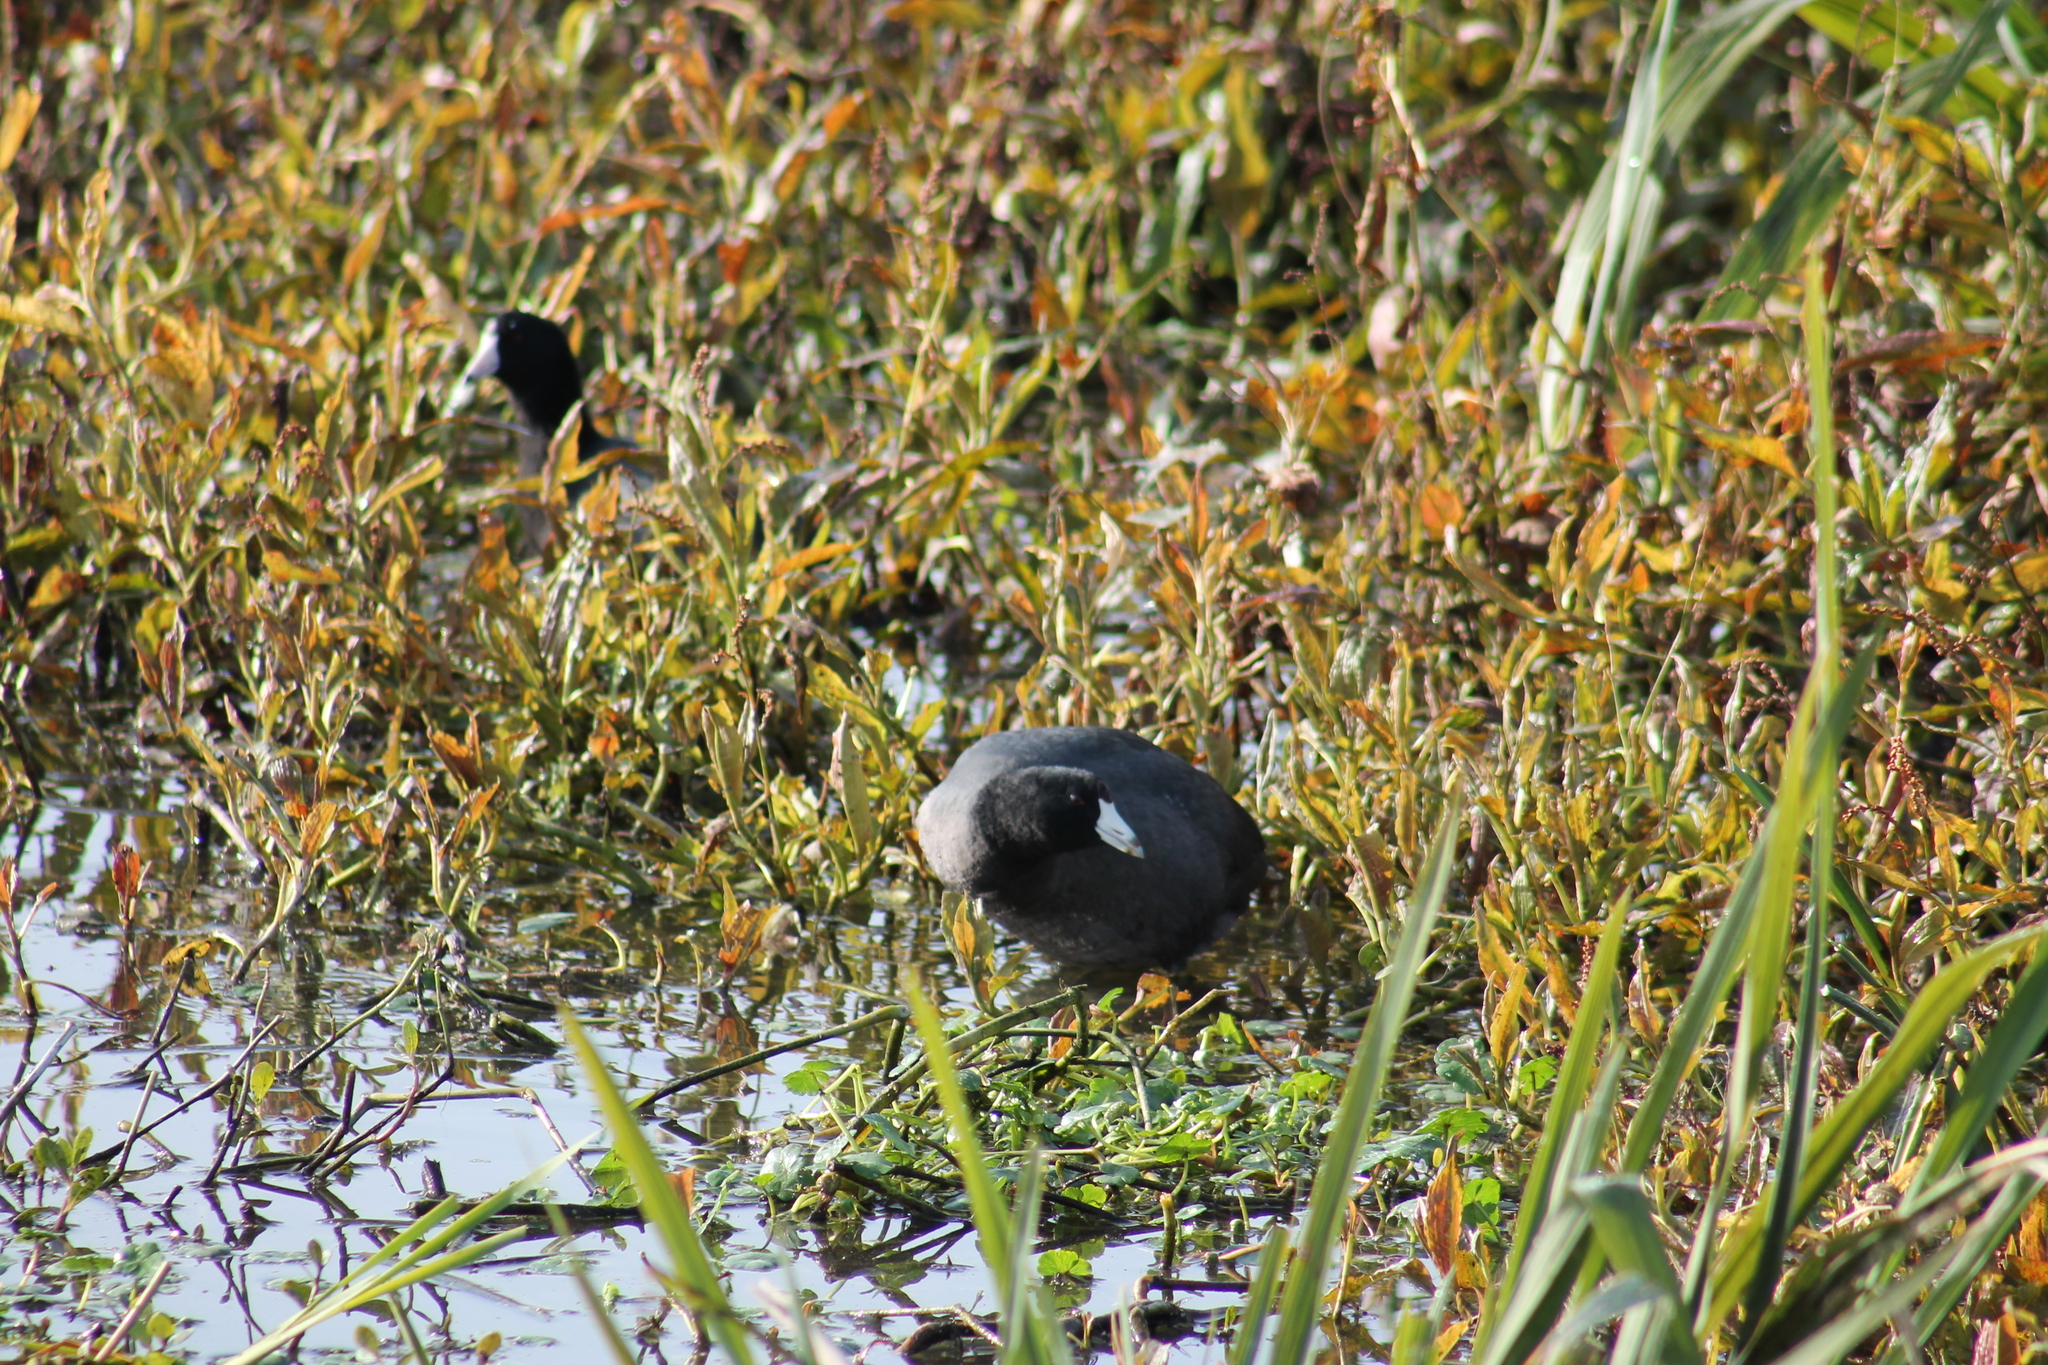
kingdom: Animalia
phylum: Chordata
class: Aves
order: Gruiformes
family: Rallidae
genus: Fulica
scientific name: Fulica americana
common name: American coot
